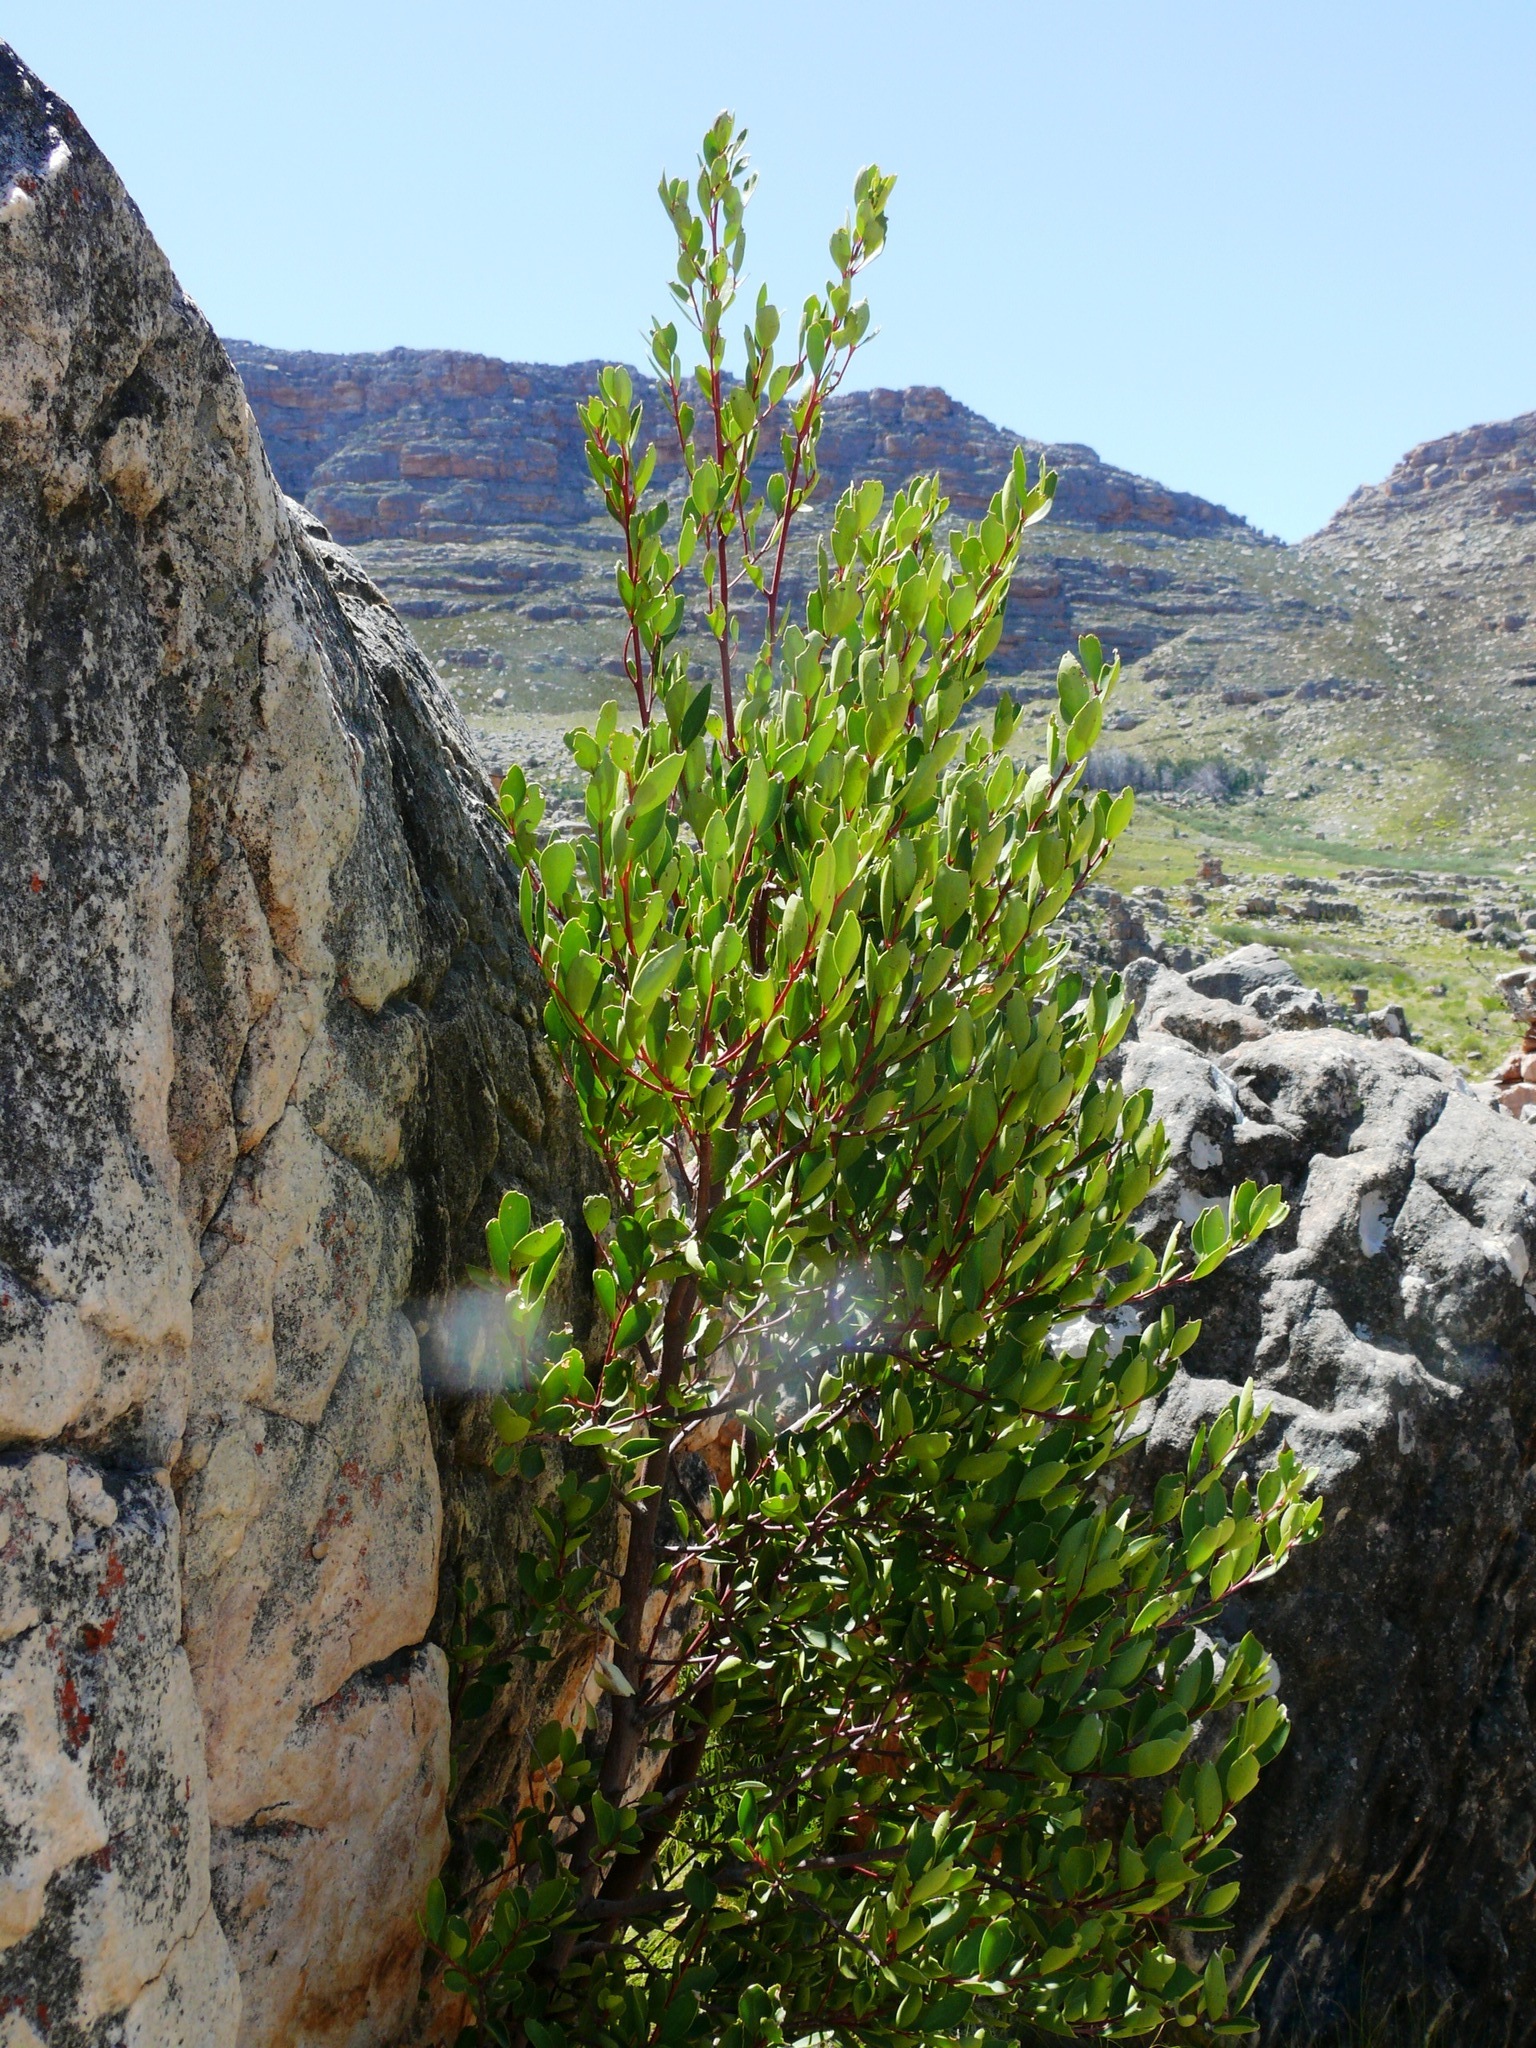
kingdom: Plantae
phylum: Tracheophyta
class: Magnoliopsida
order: Celastrales
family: Celastraceae
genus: Gymnosporia
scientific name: Gymnosporia laurina
